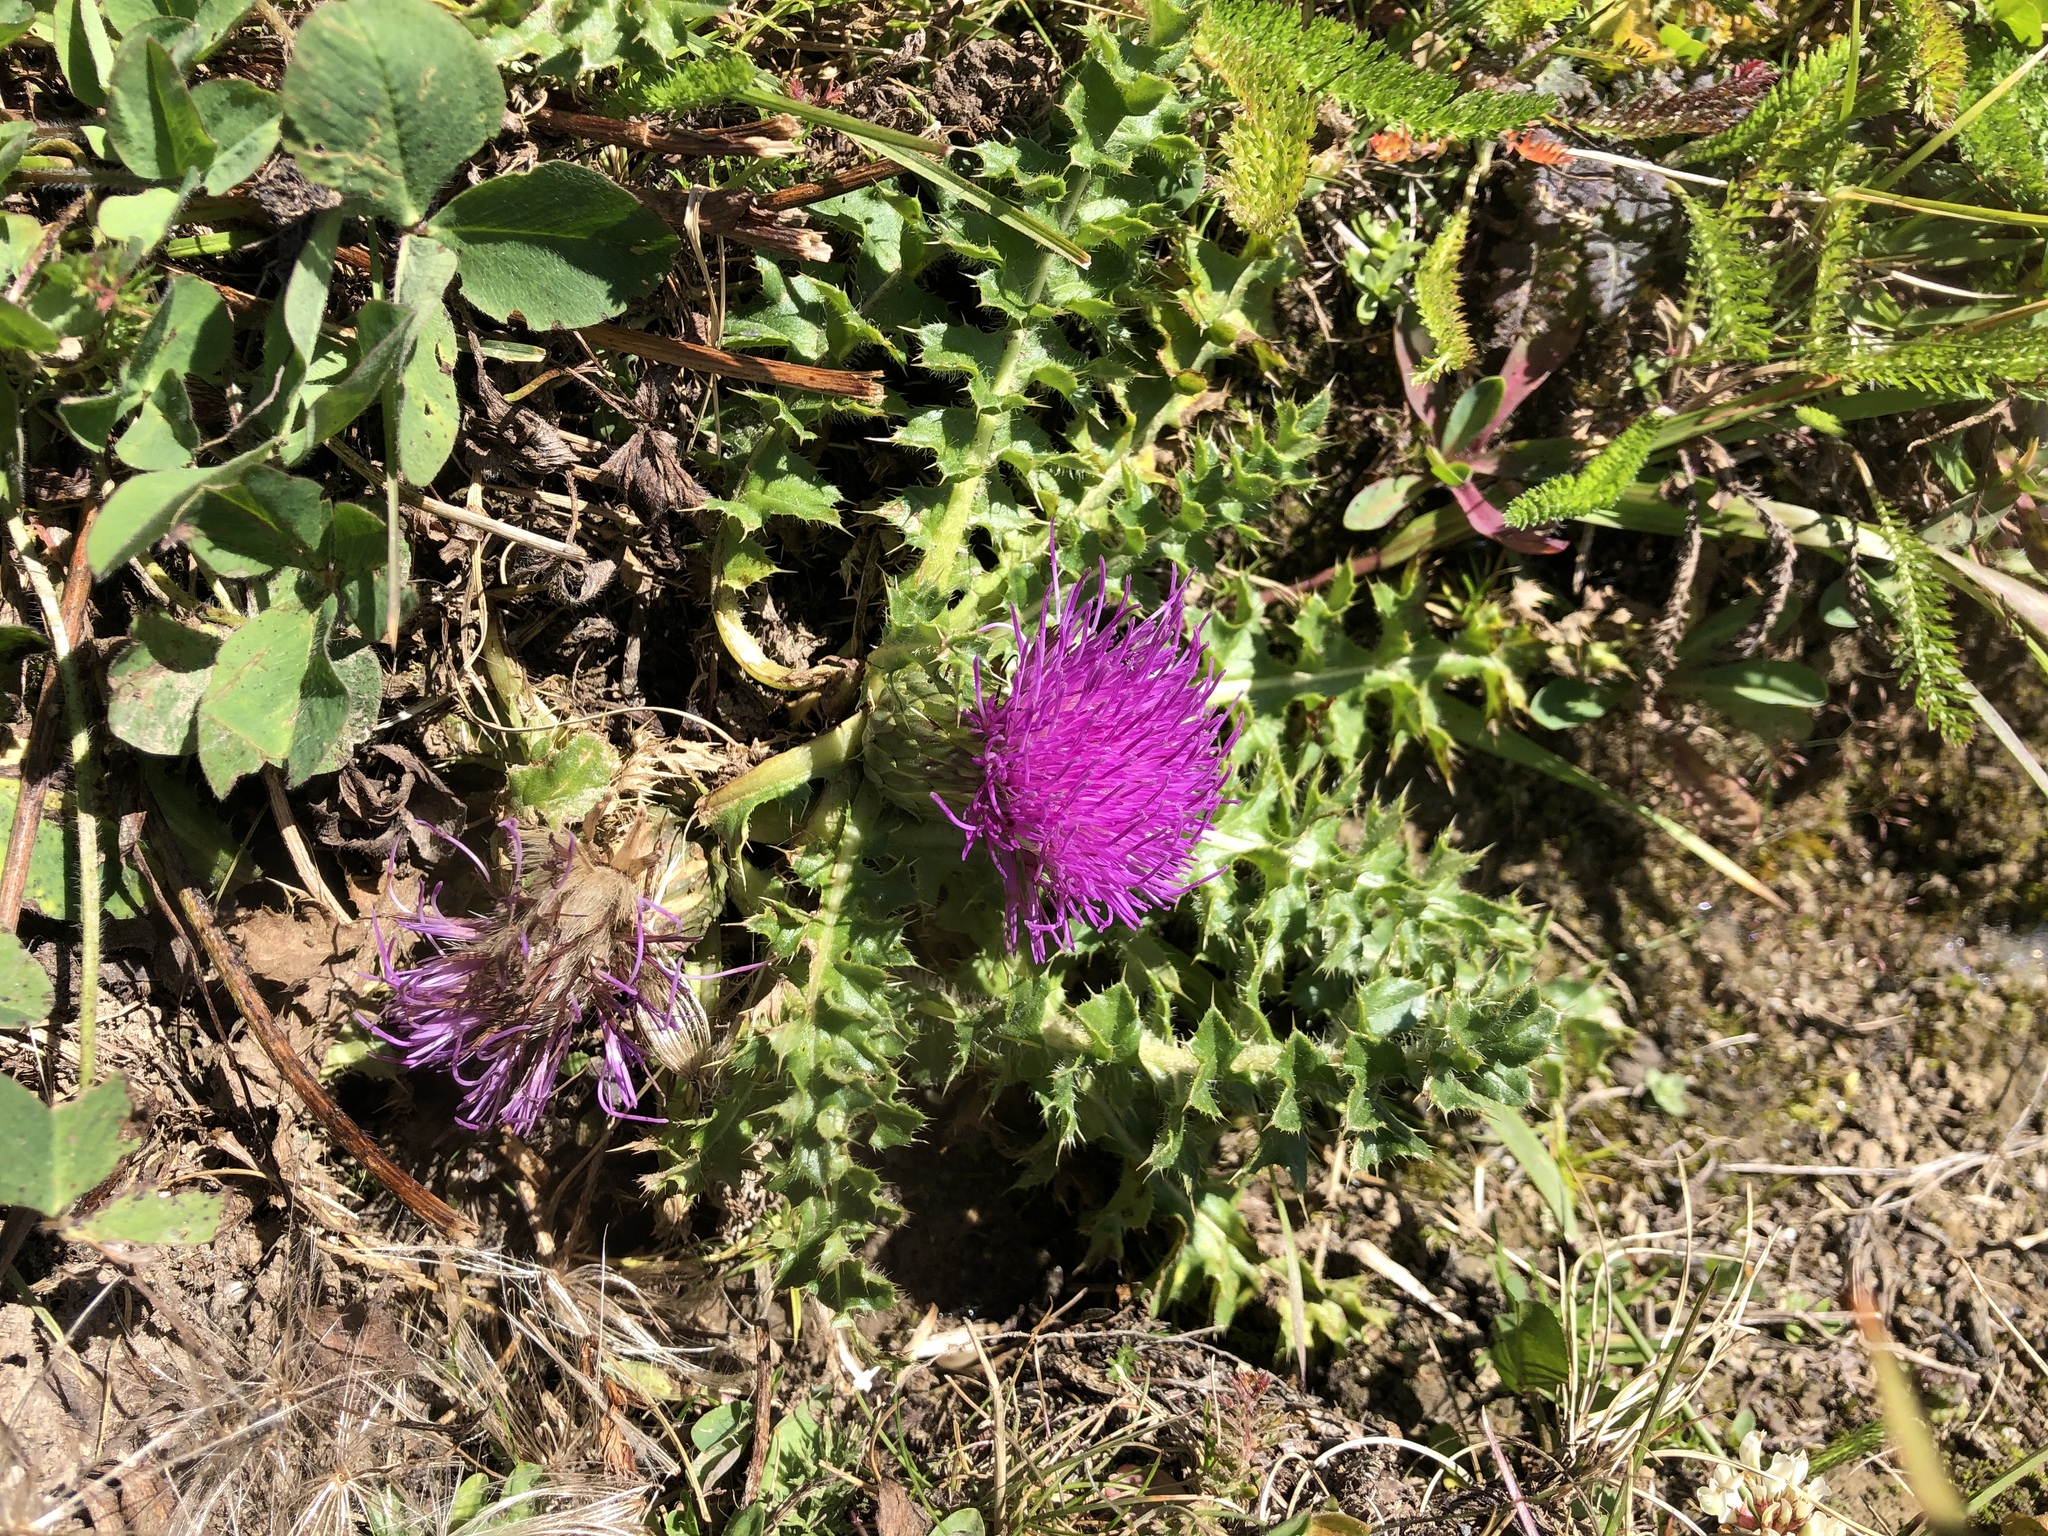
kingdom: Plantae
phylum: Tracheophyta
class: Magnoliopsida
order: Asterales
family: Asteraceae
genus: Cirsium
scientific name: Cirsium acaulon
